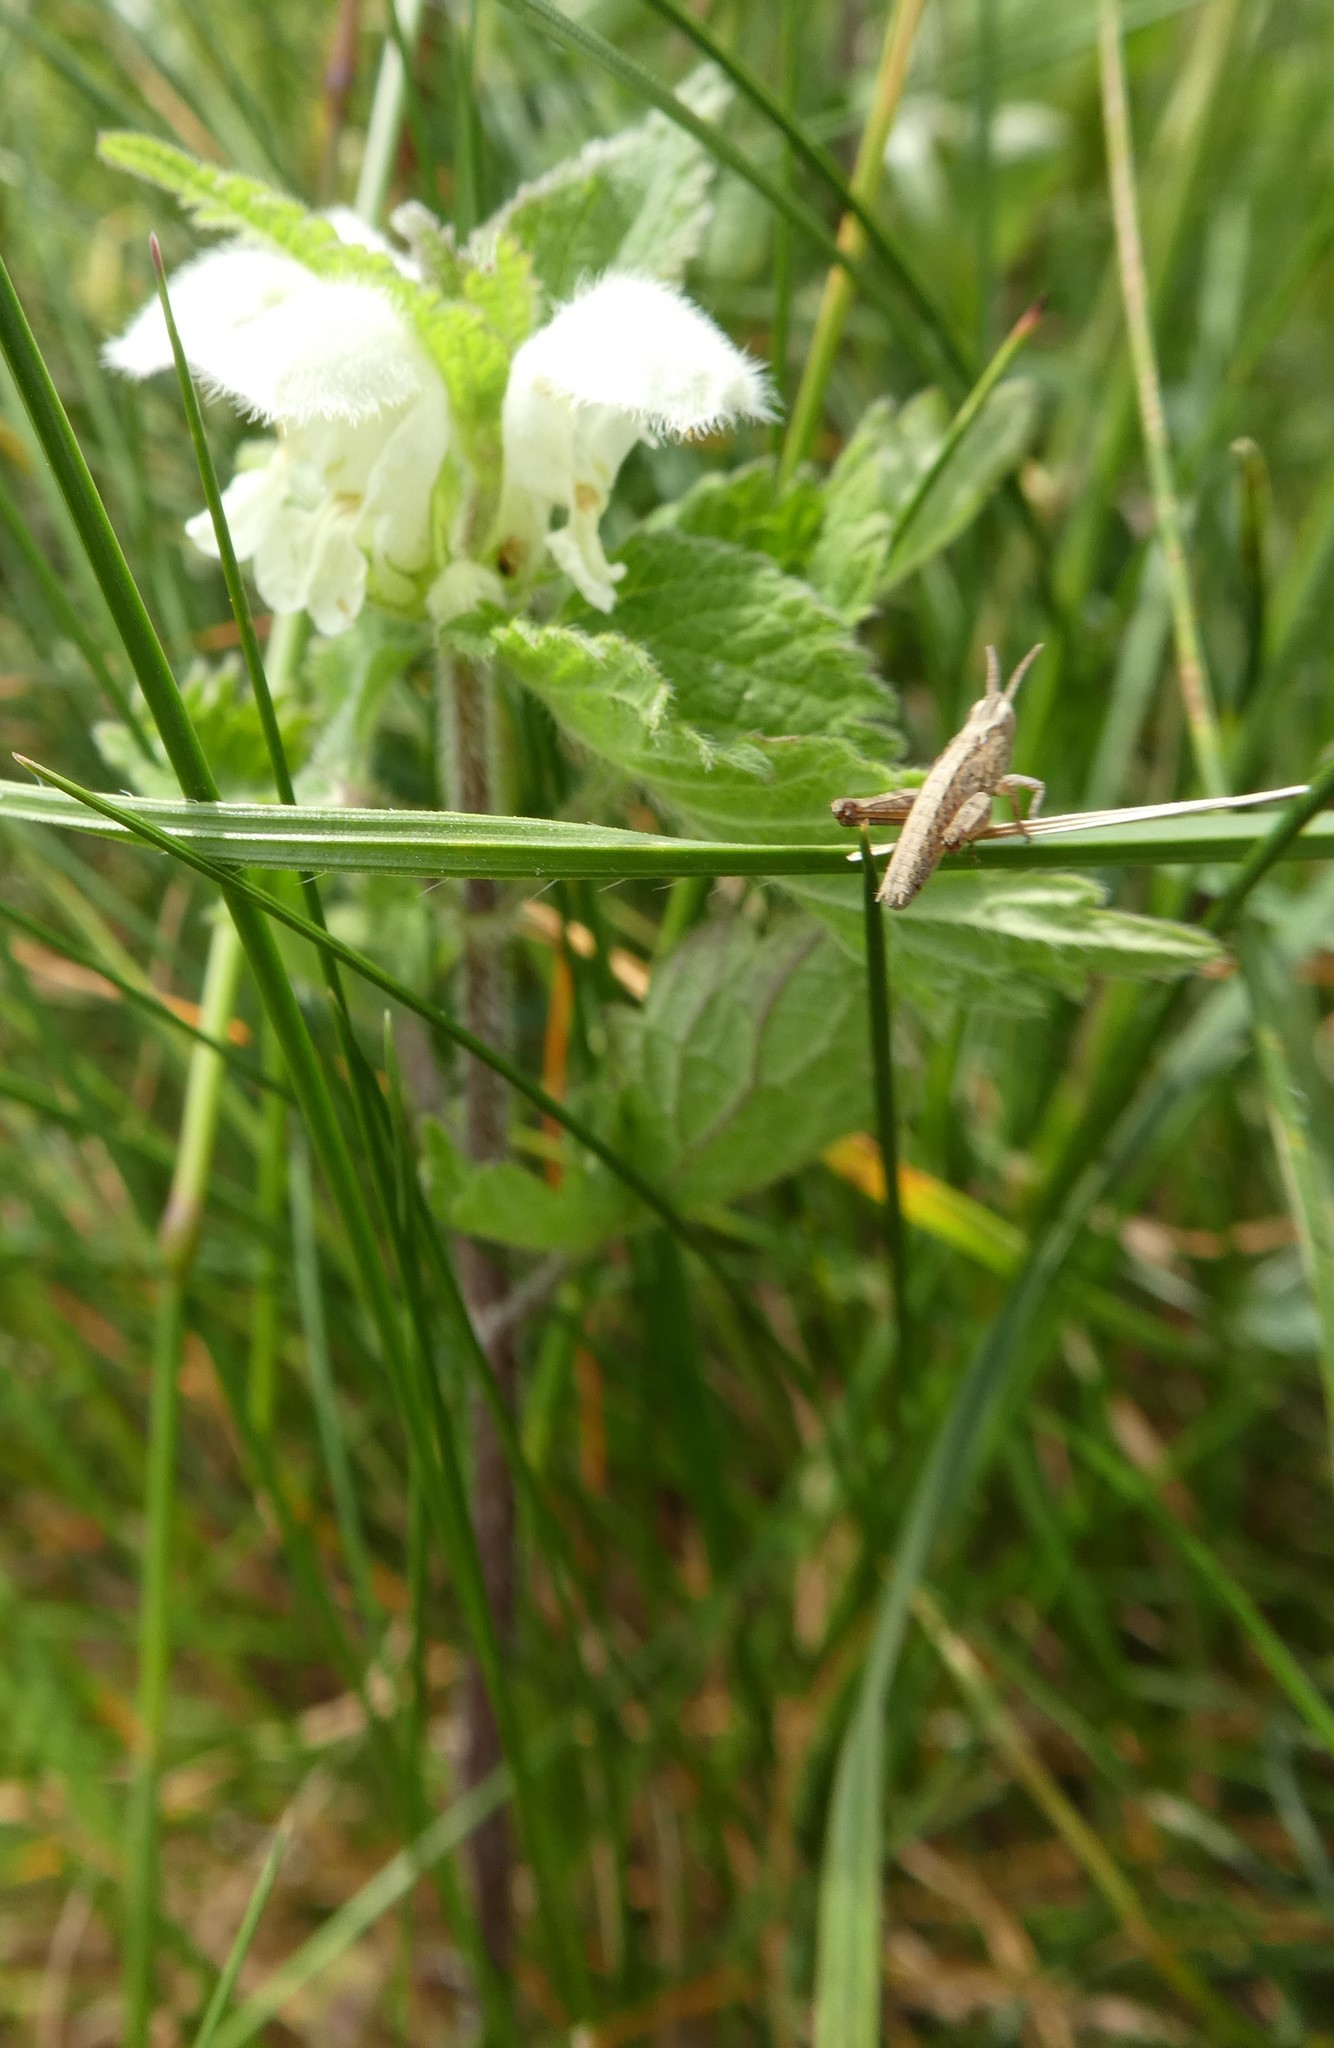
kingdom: Plantae
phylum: Tracheophyta
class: Magnoliopsida
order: Lamiales
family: Lamiaceae
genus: Lamium
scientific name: Lamium album
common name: White dead-nettle
